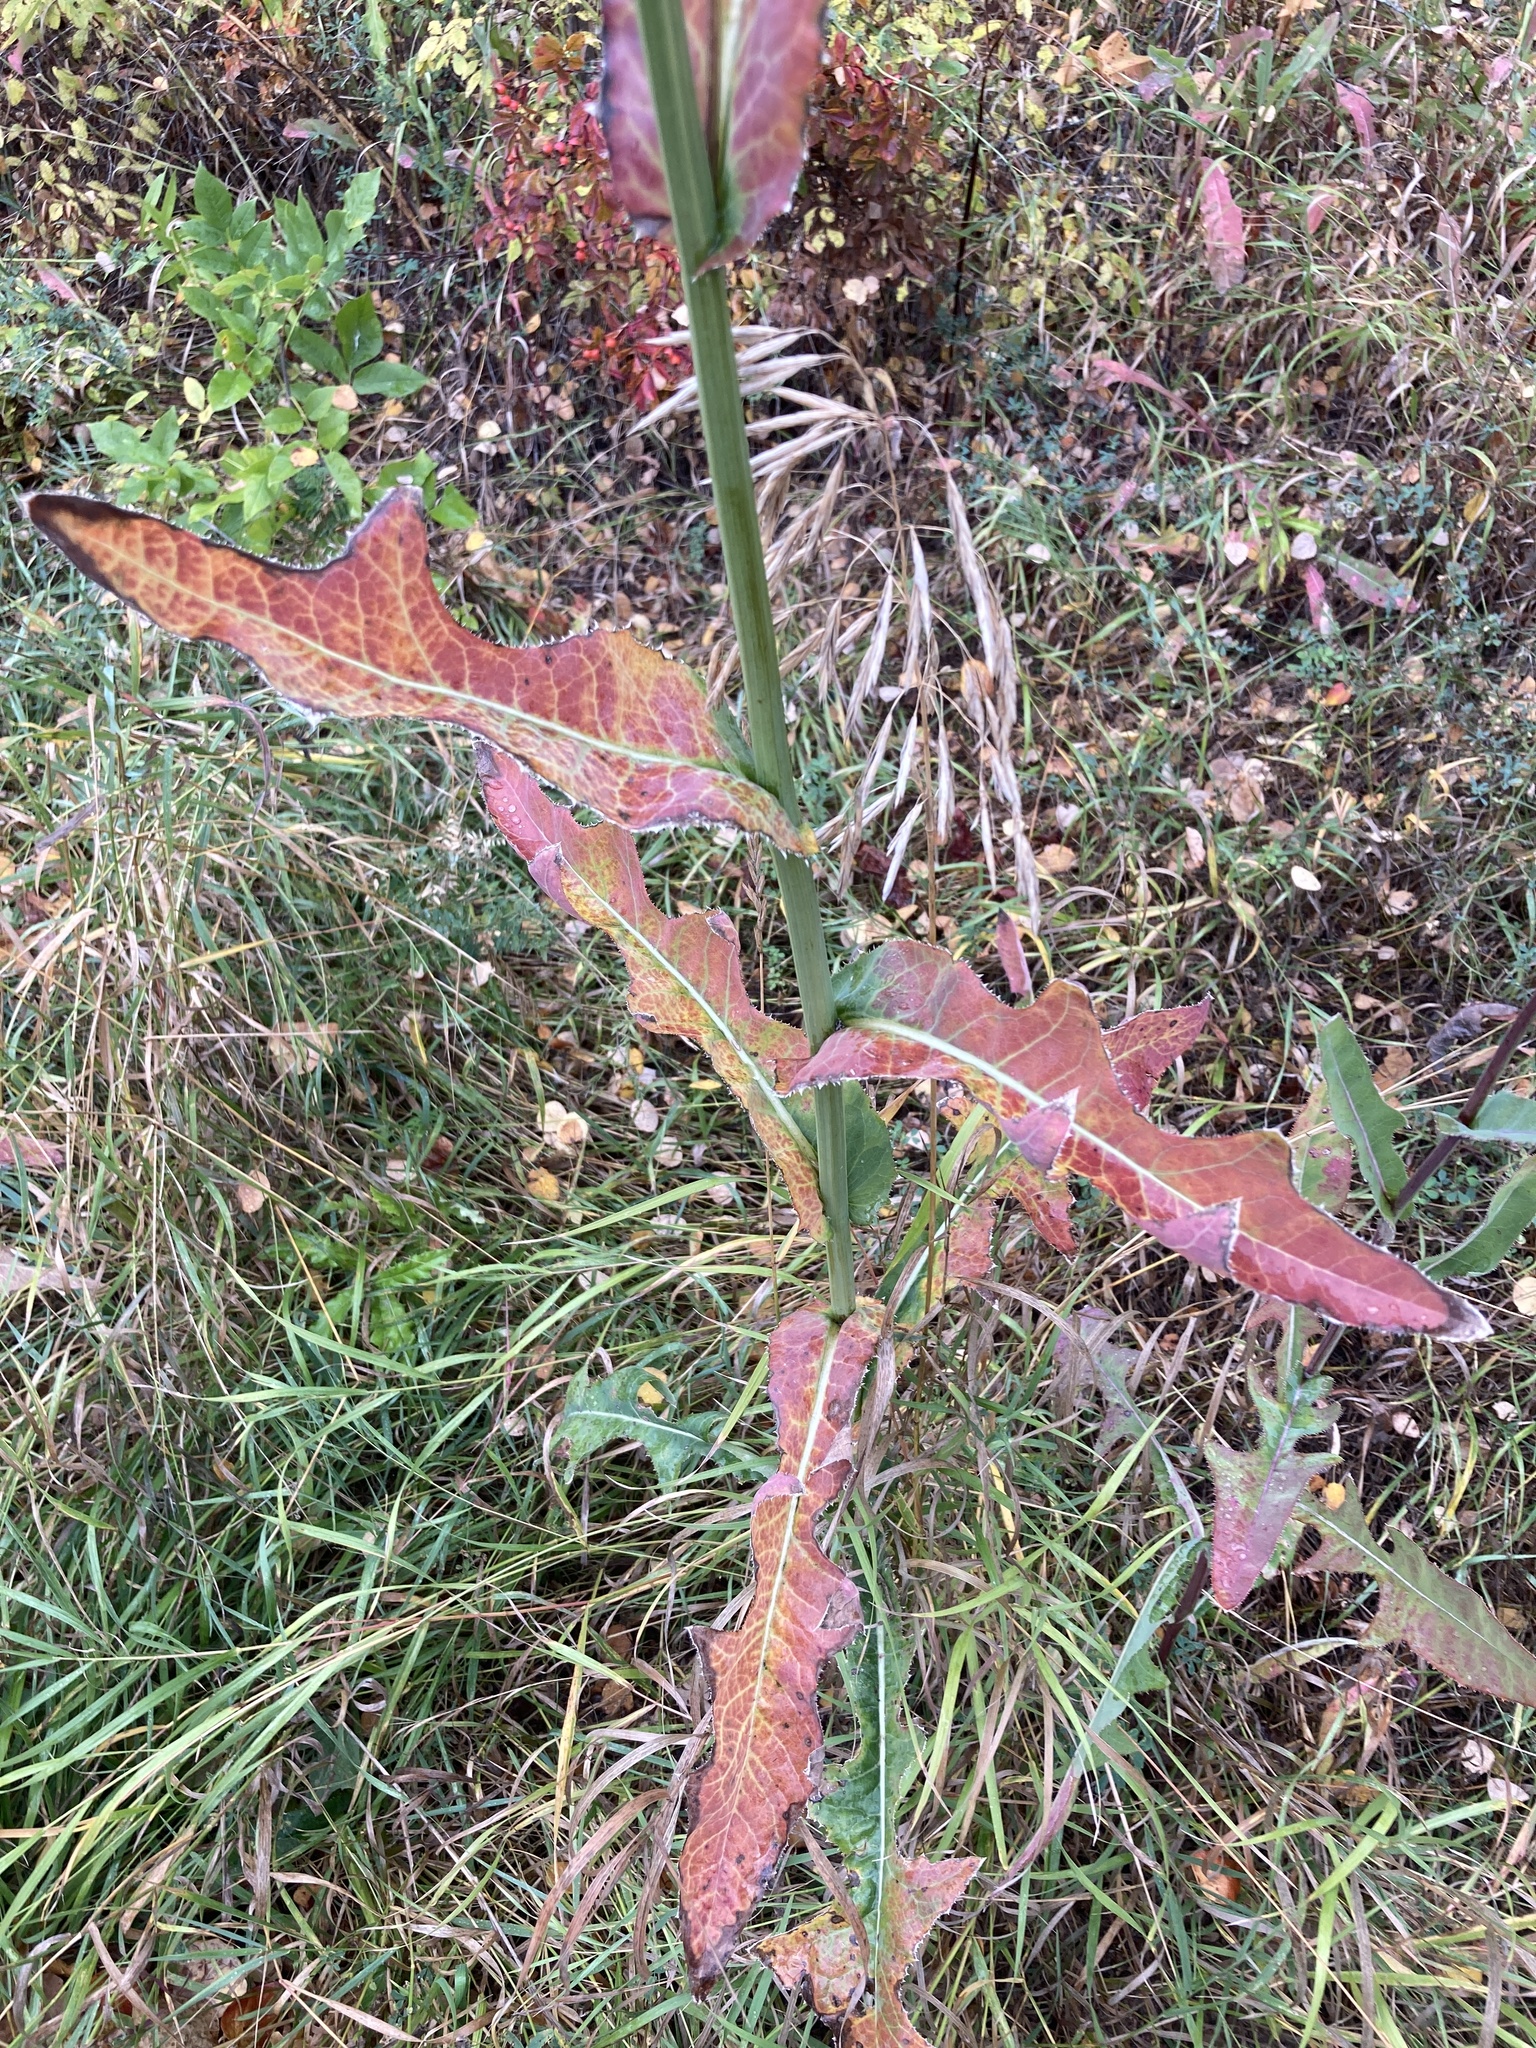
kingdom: Plantae
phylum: Tracheophyta
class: Magnoliopsida
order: Asterales
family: Asteraceae
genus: Sonchus
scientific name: Sonchus arvensis
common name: Perennial sow-thistle
